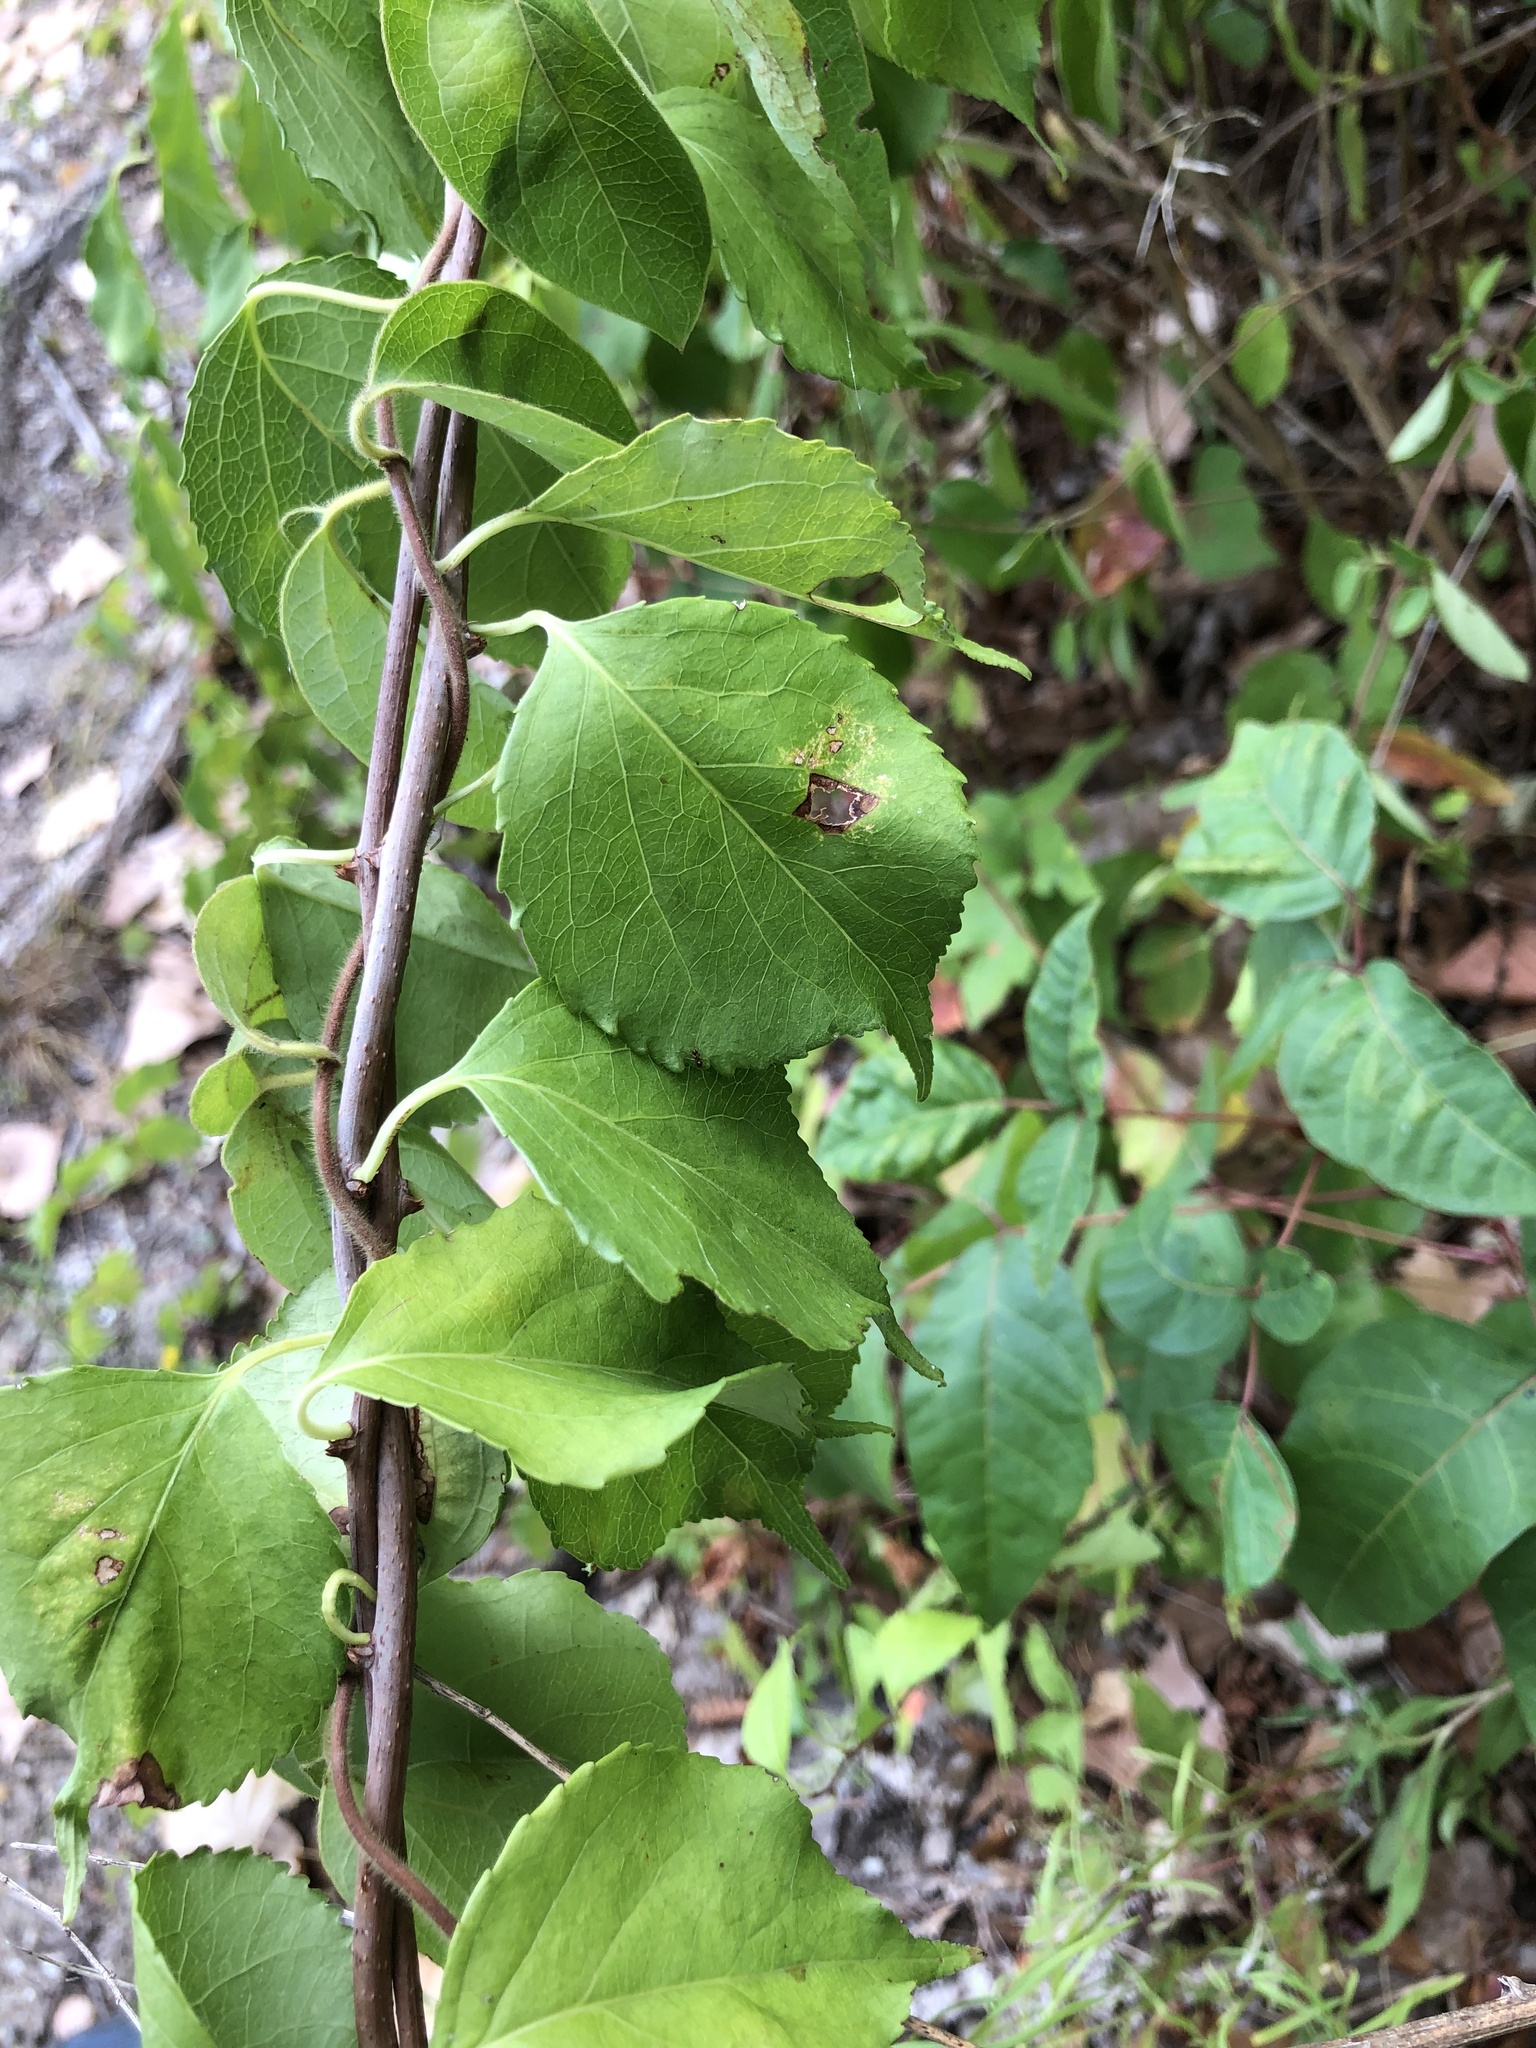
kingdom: Plantae
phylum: Tracheophyta
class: Magnoliopsida
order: Celastrales
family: Celastraceae
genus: Celastrus
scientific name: Celastrus orbiculatus
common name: Oriental bittersweet
